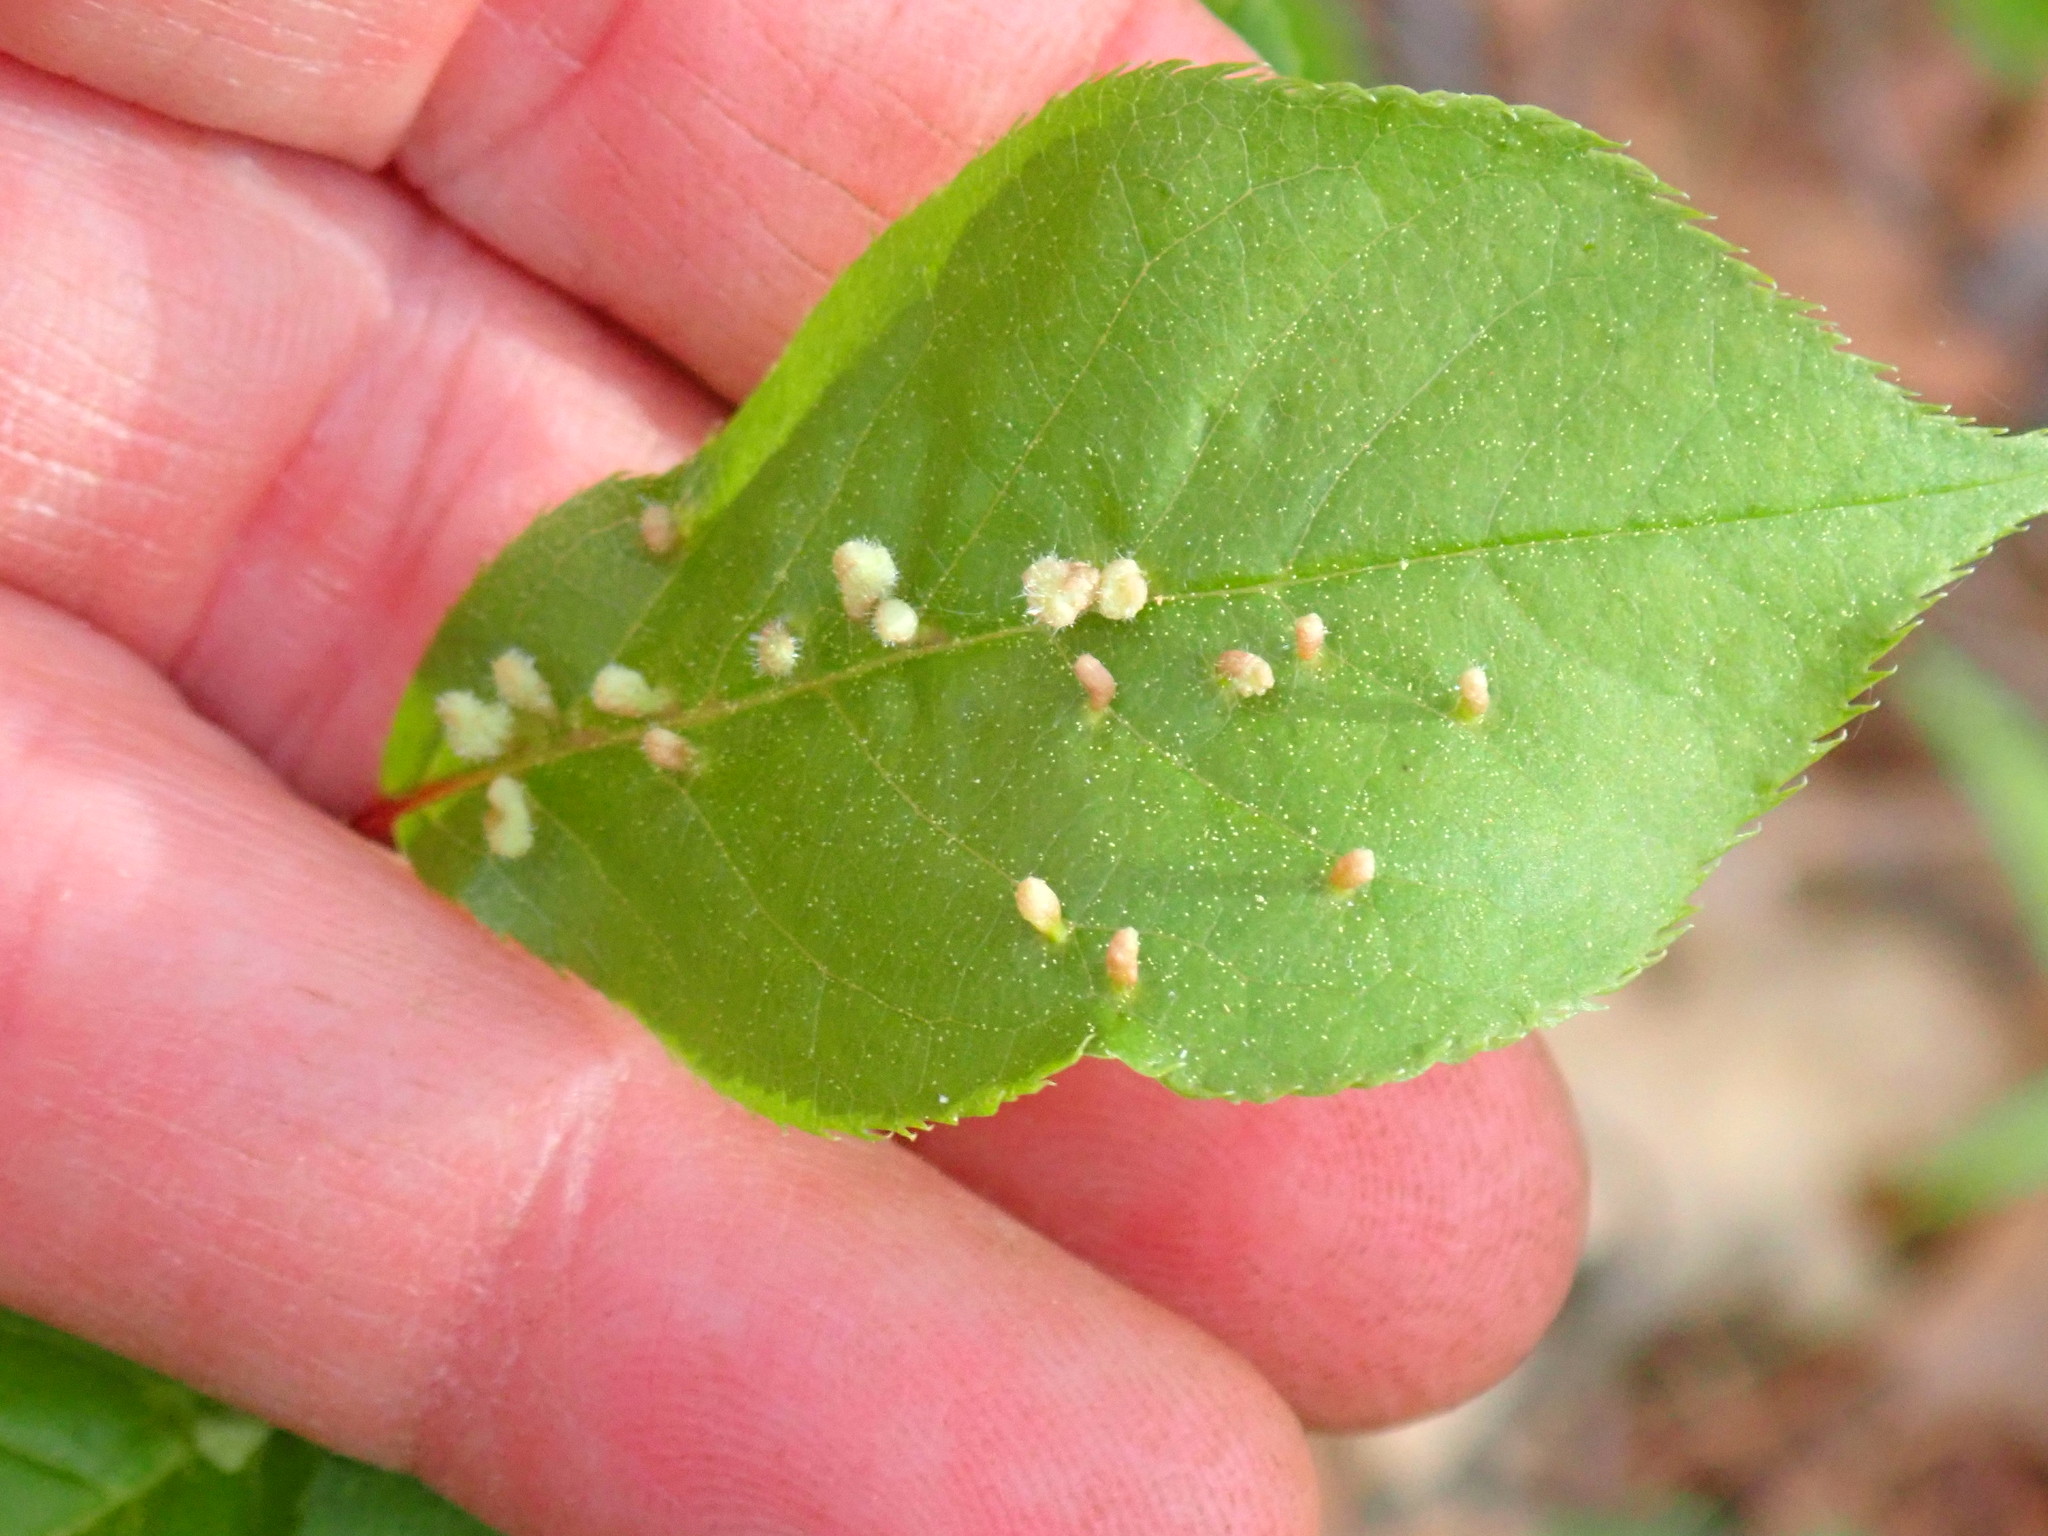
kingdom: Animalia
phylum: Arthropoda
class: Arachnida
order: Trombidiformes
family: Eriophyidae
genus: Eriophyes
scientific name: Eriophyes
